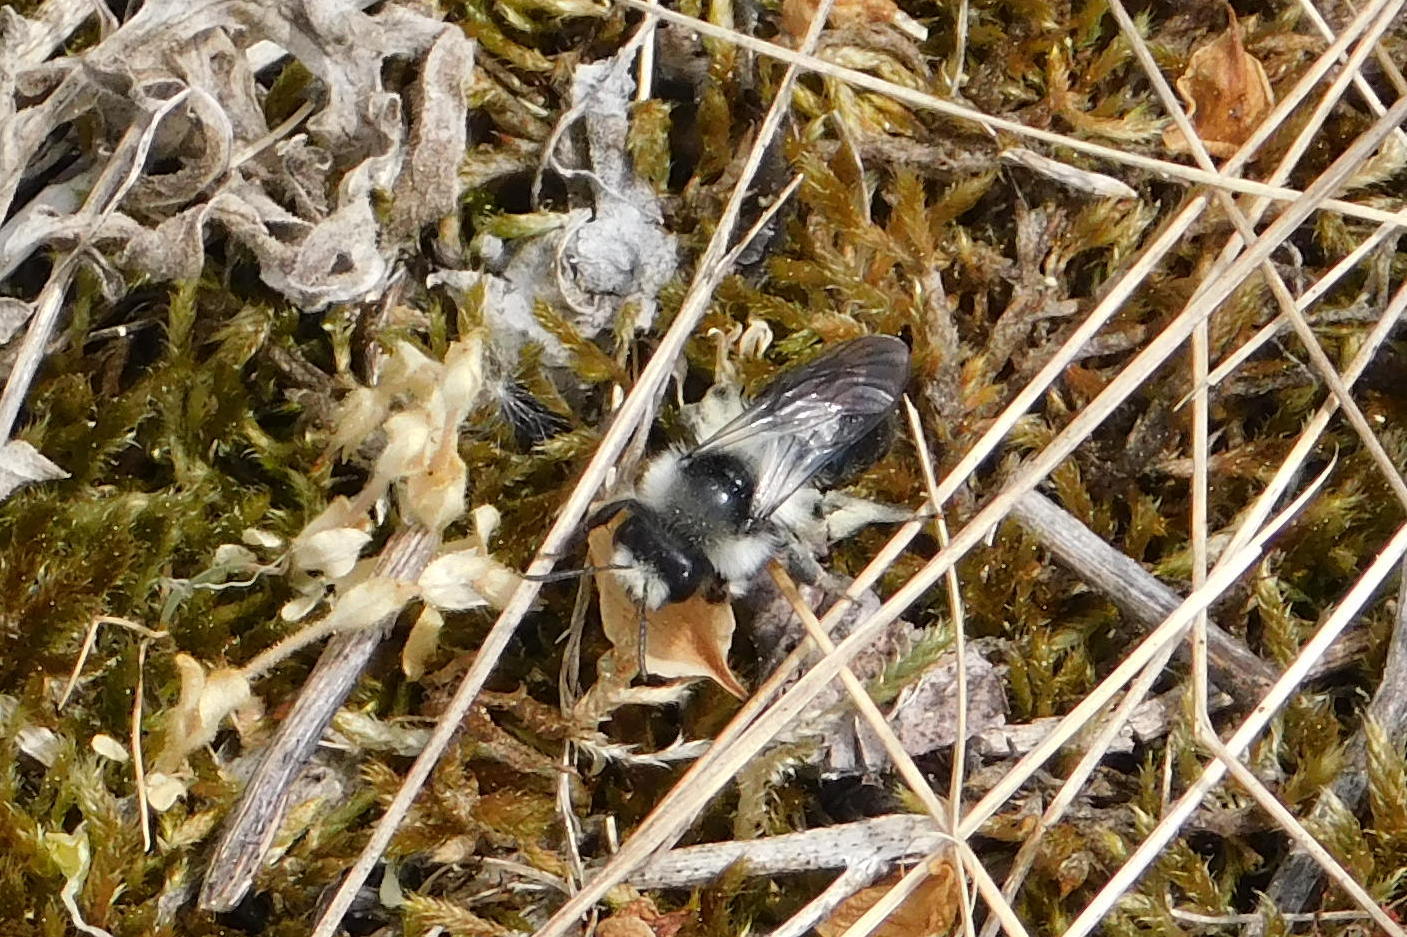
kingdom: Animalia
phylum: Arthropoda
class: Insecta
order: Hymenoptera
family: Andrenidae
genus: Andrena
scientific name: Andrena cineraria
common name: Ashy mining bee
